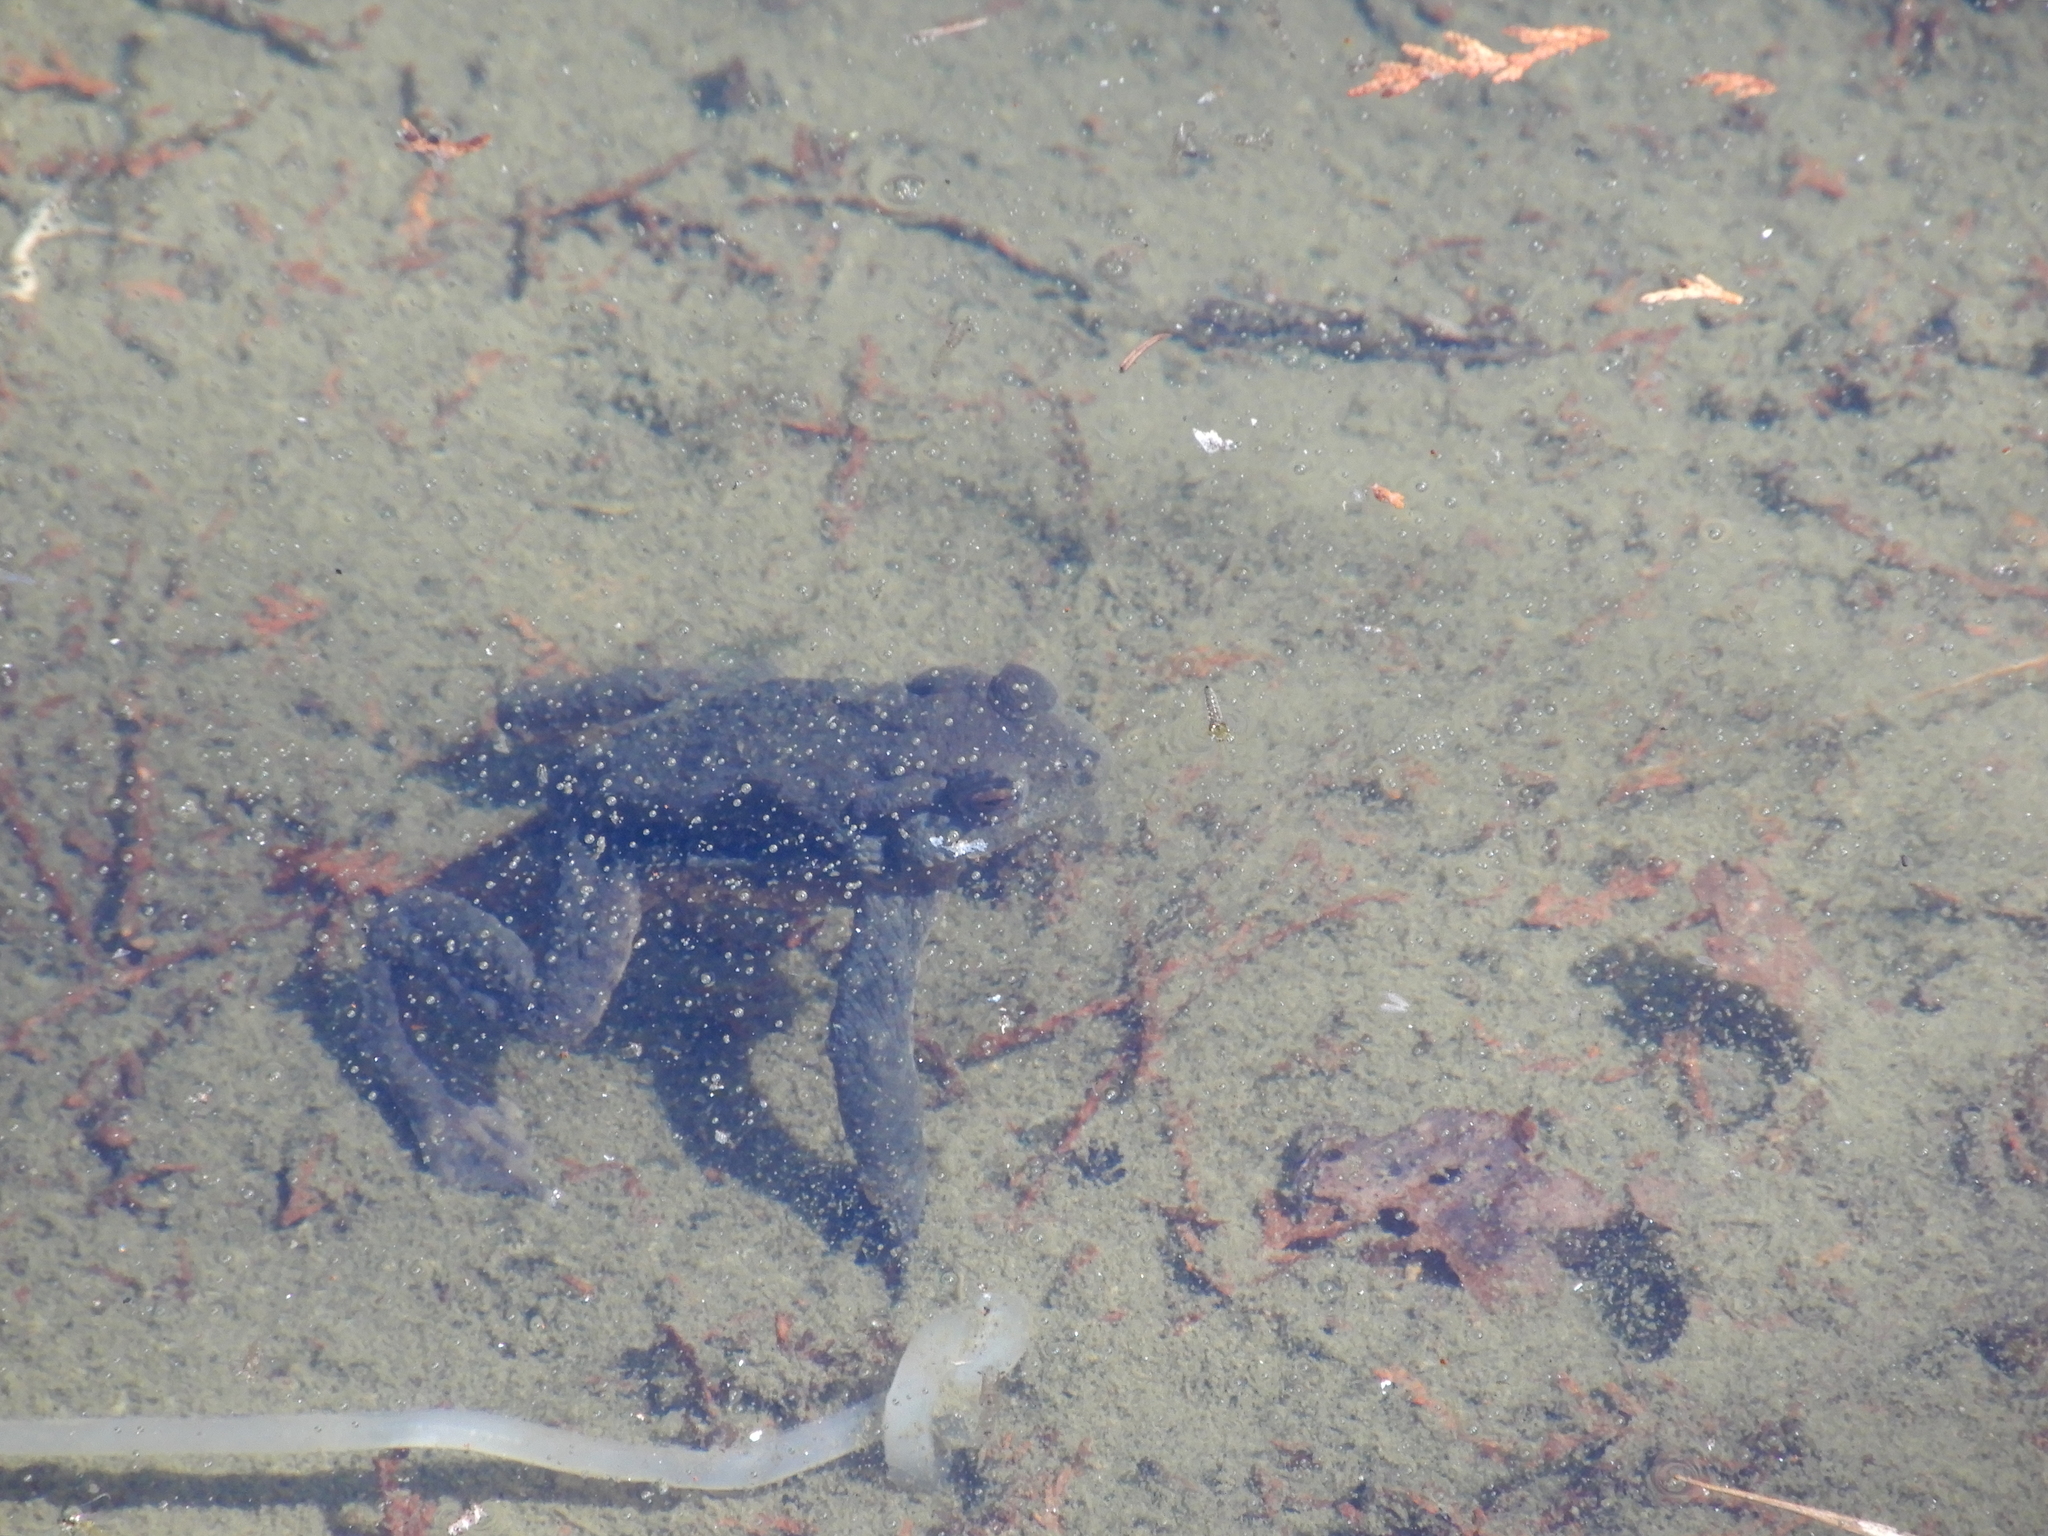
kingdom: Animalia
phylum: Chordata
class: Amphibia
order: Anura
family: Bufonidae
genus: Bufo
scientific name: Bufo bankorensis
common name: Bankor toad
